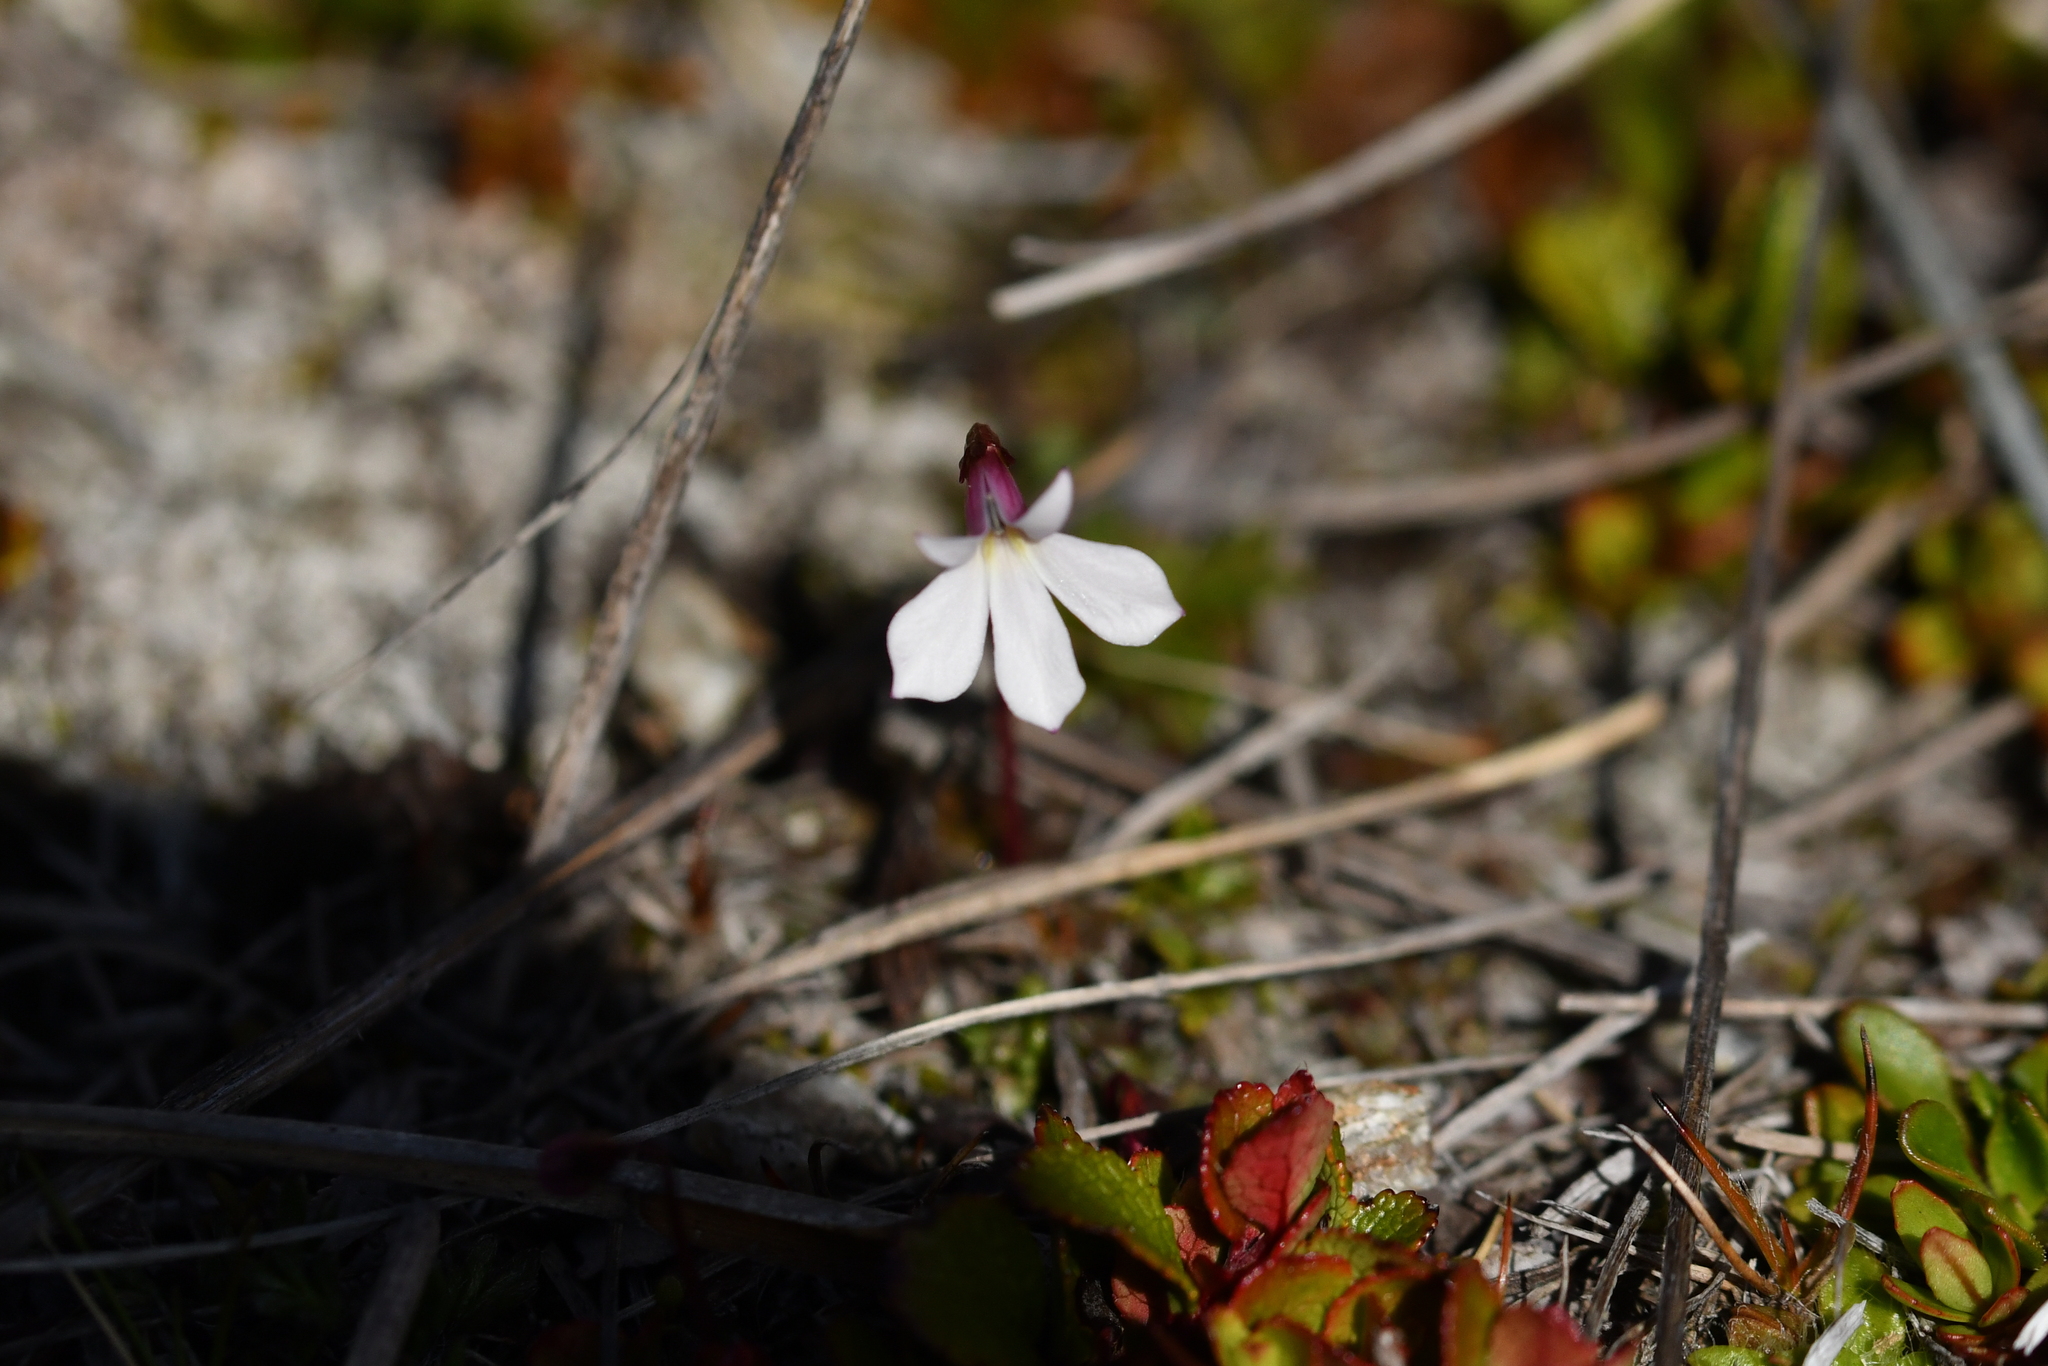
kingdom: Plantae
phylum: Tracheophyta
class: Magnoliopsida
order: Asterales
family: Campanulaceae
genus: Lobelia
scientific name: Lobelia angulata
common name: Lawn lobelia
